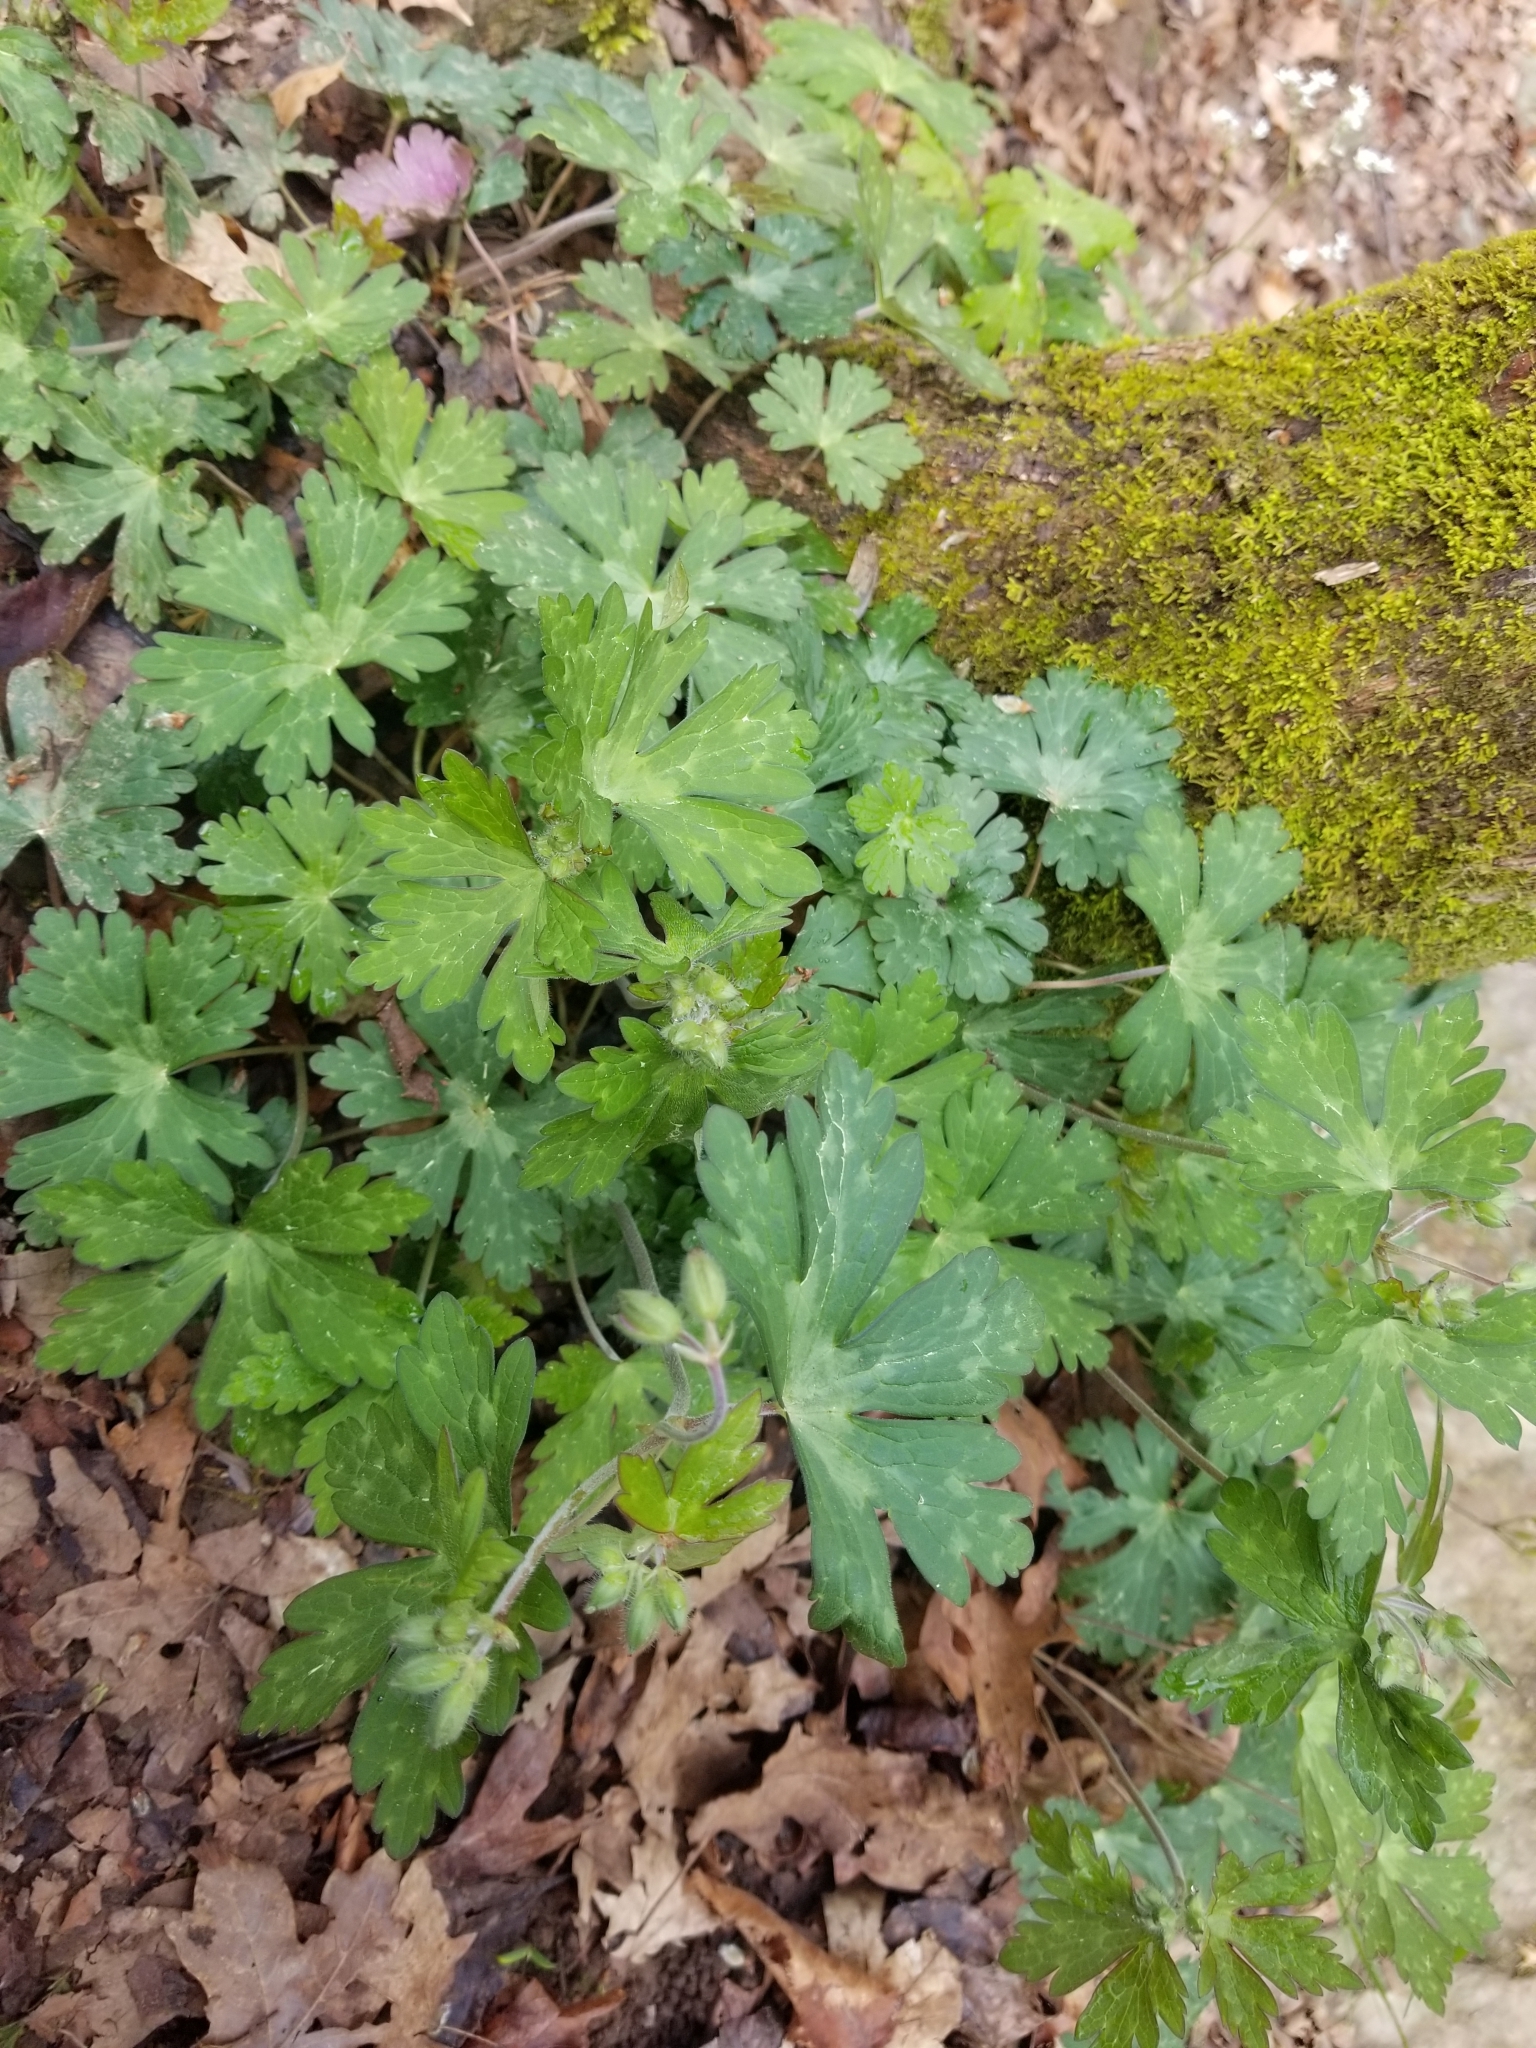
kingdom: Plantae
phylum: Tracheophyta
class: Magnoliopsida
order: Geraniales
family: Geraniaceae
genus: Geranium
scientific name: Geranium maculatum
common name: Spotted geranium
